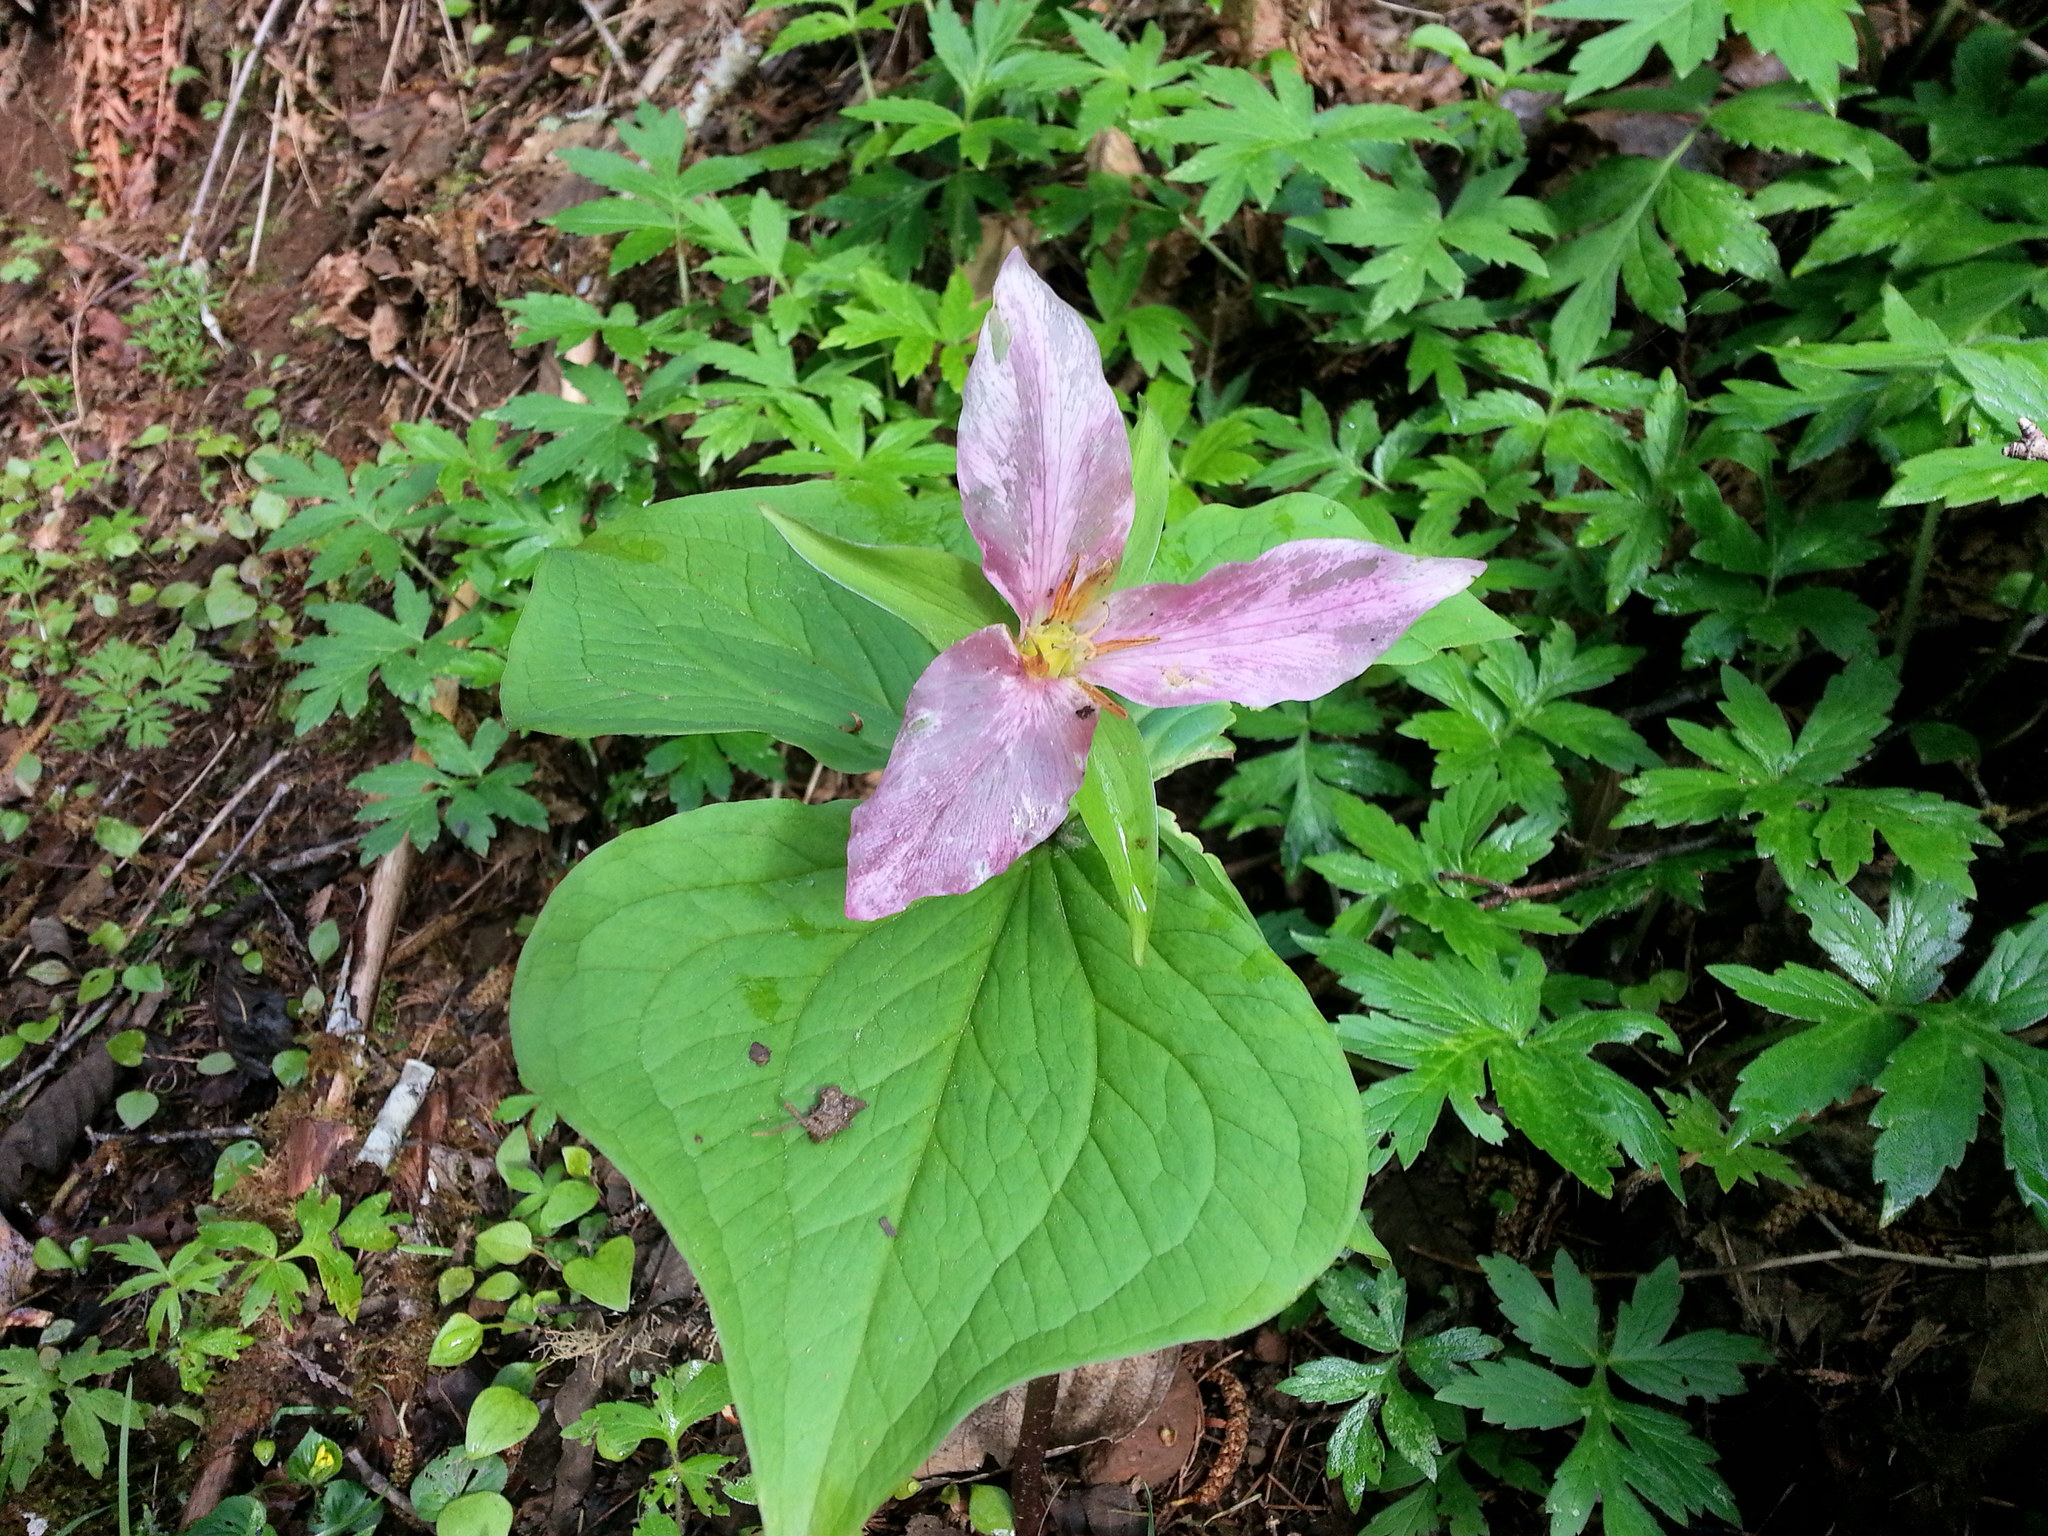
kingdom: Plantae
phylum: Tracheophyta
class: Liliopsida
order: Liliales
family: Melanthiaceae
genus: Trillium
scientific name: Trillium ovatum
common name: Pacific trillium
